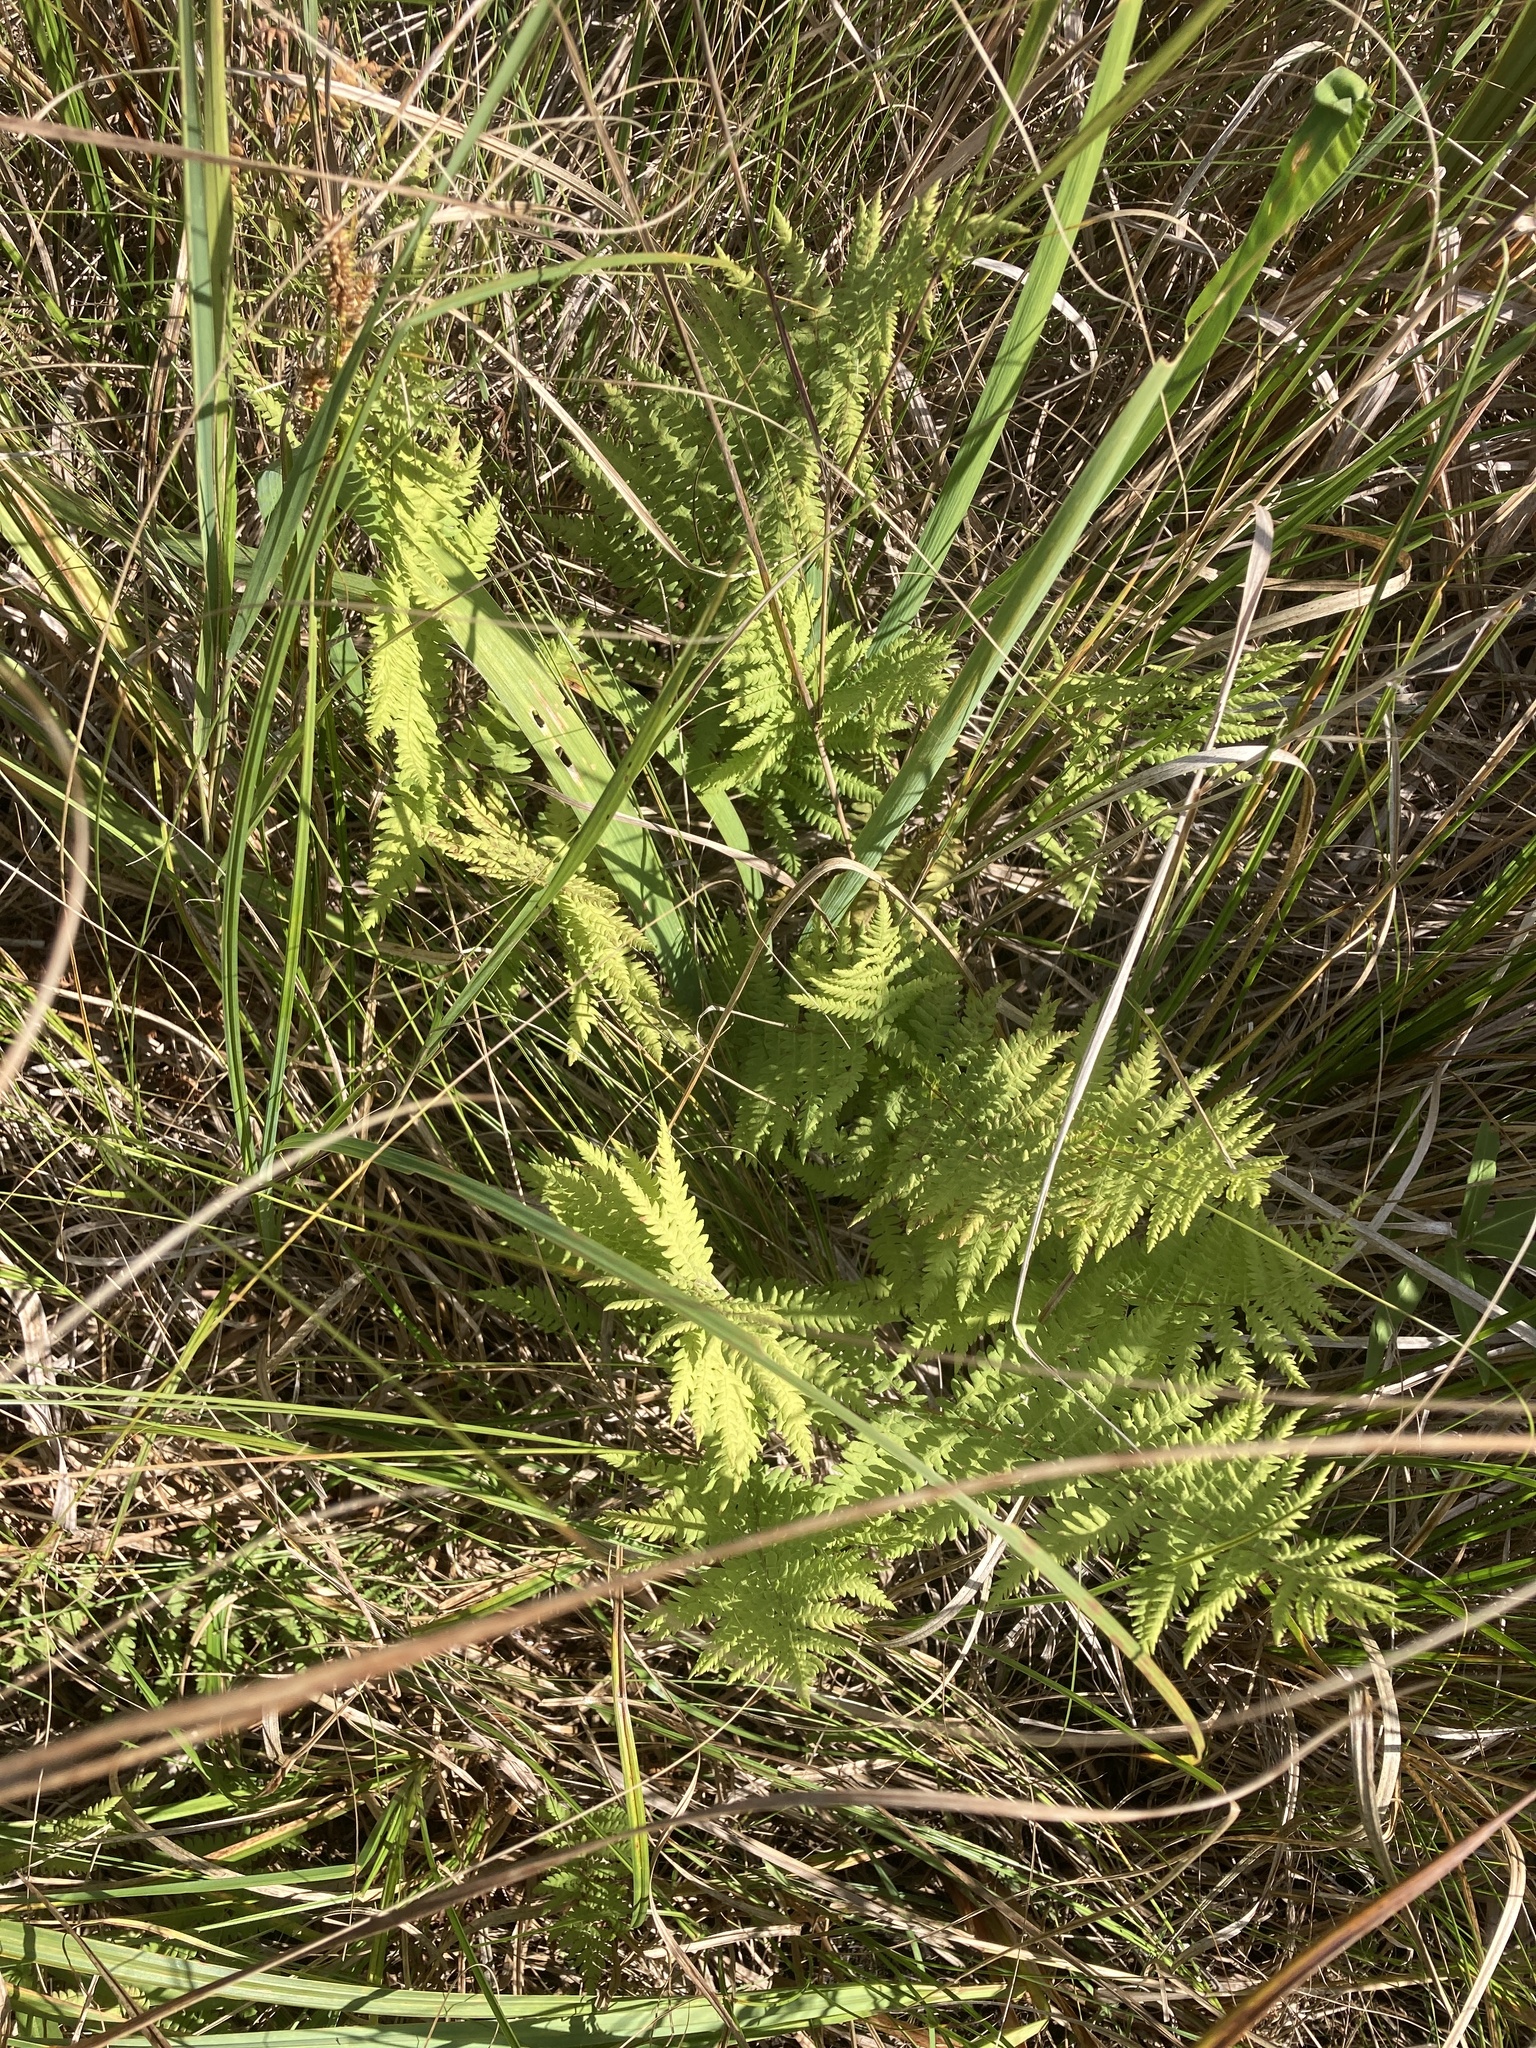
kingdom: Plantae
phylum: Tracheophyta
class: Polypodiopsida
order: Polypodiales
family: Thelypteridaceae
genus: Thelypteris
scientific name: Thelypteris palustris
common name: Marsh fern
